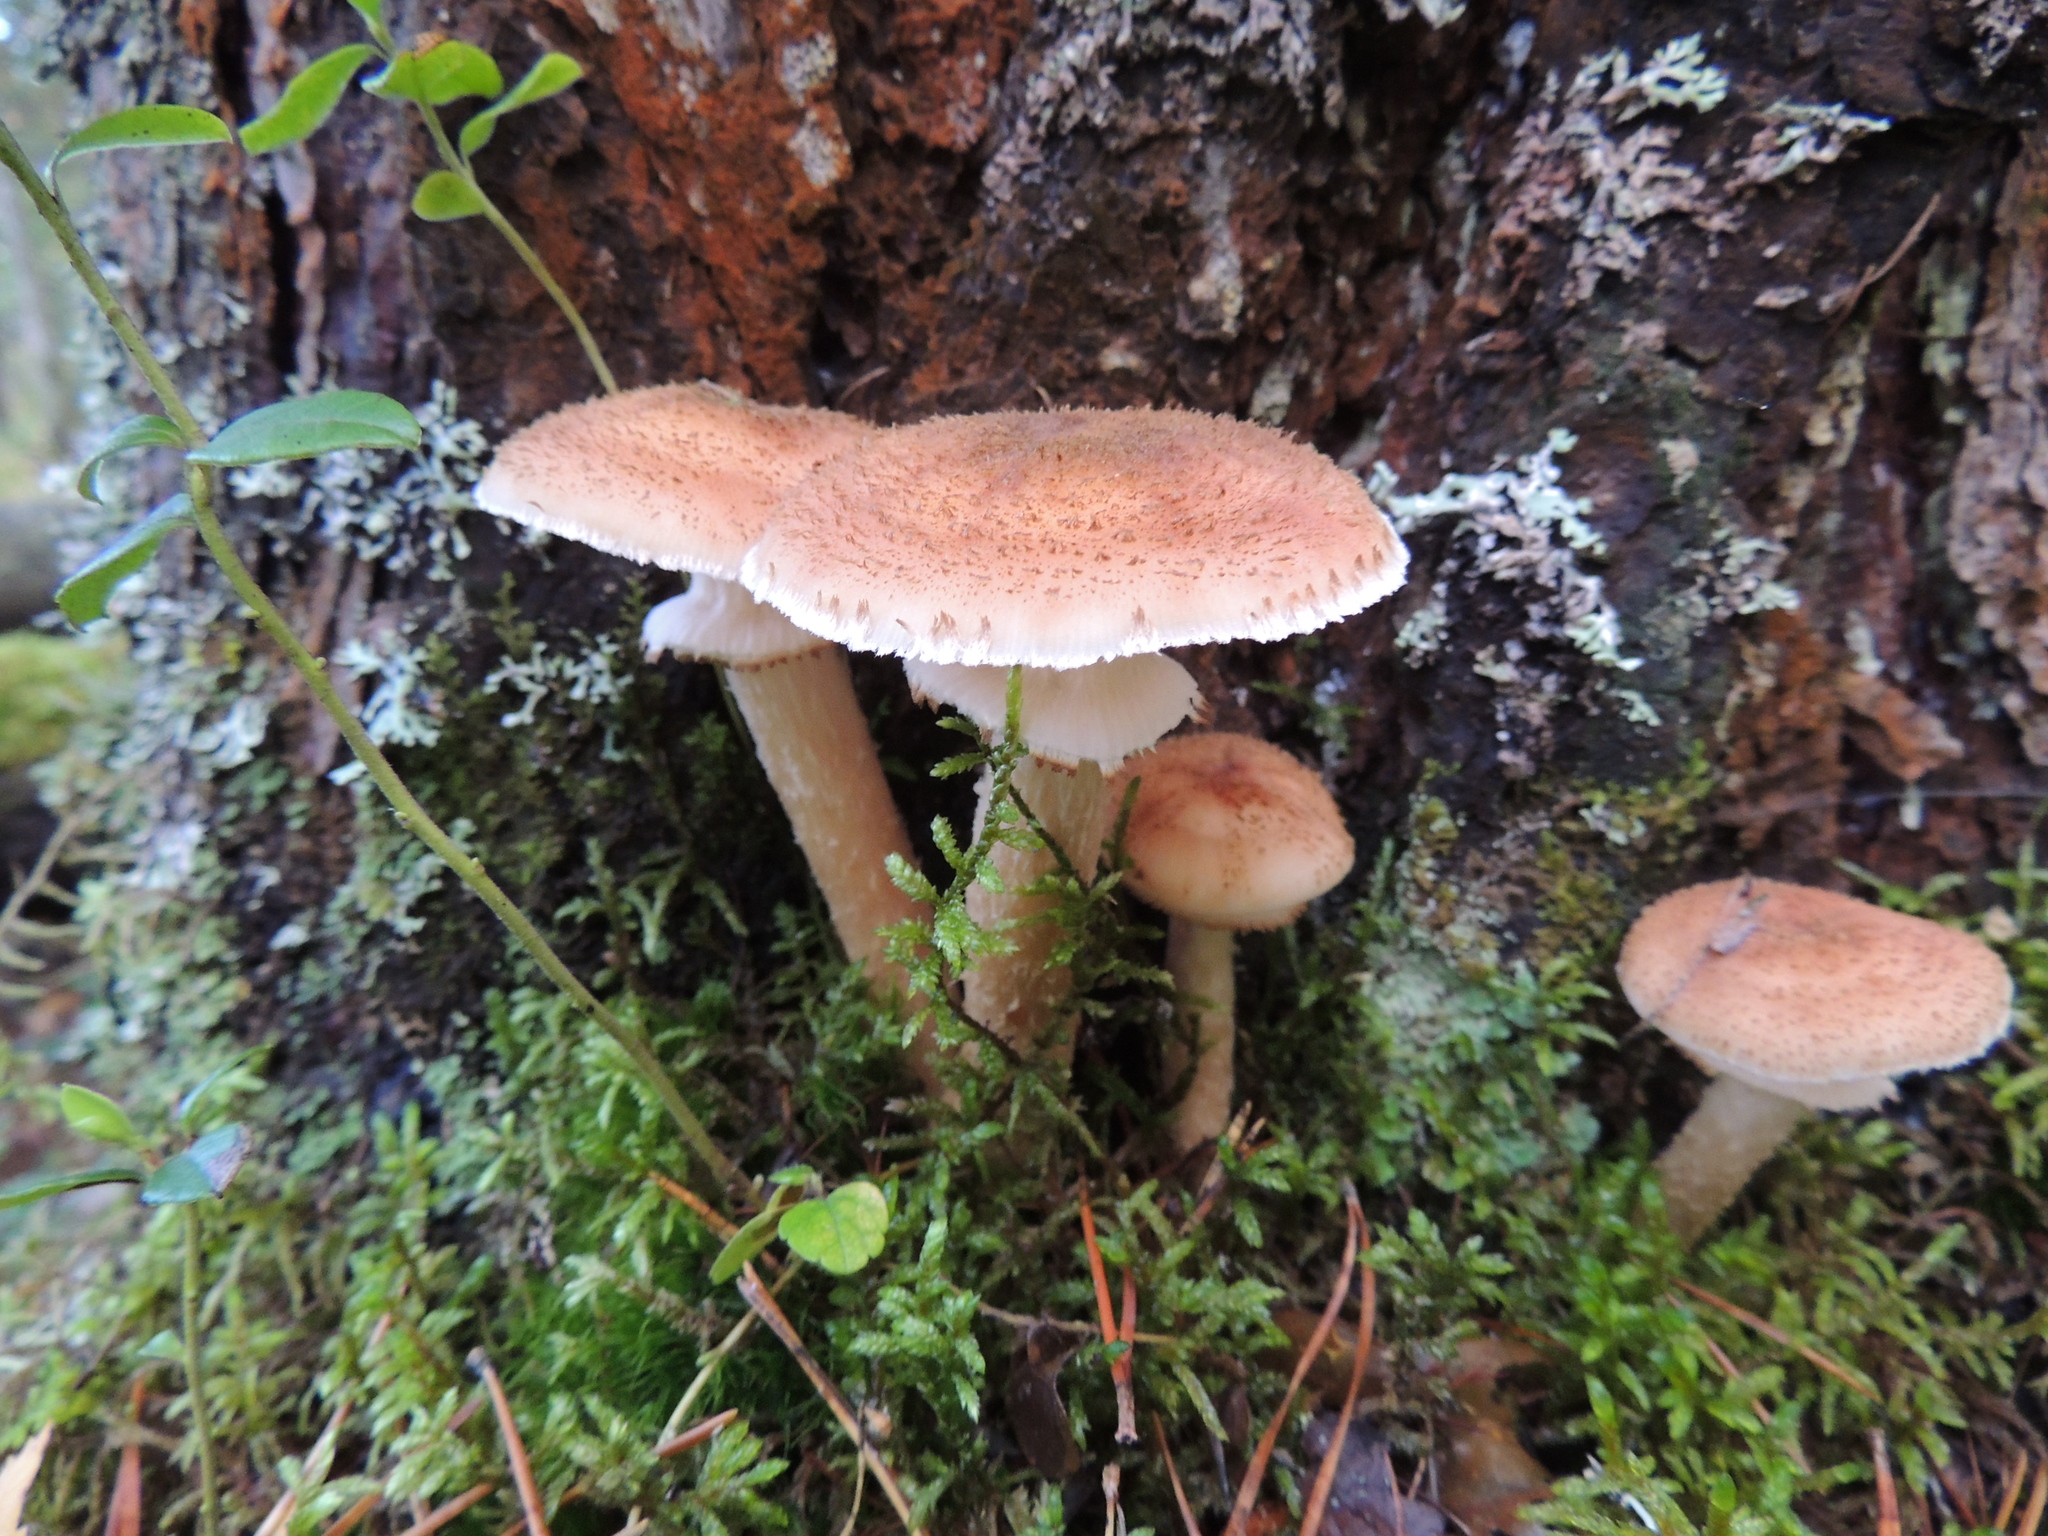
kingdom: Fungi
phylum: Basidiomycota
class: Agaricomycetes
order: Agaricales
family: Physalacriaceae
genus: Armillaria
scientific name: Armillaria ostoyae
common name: Dark honey fungus
